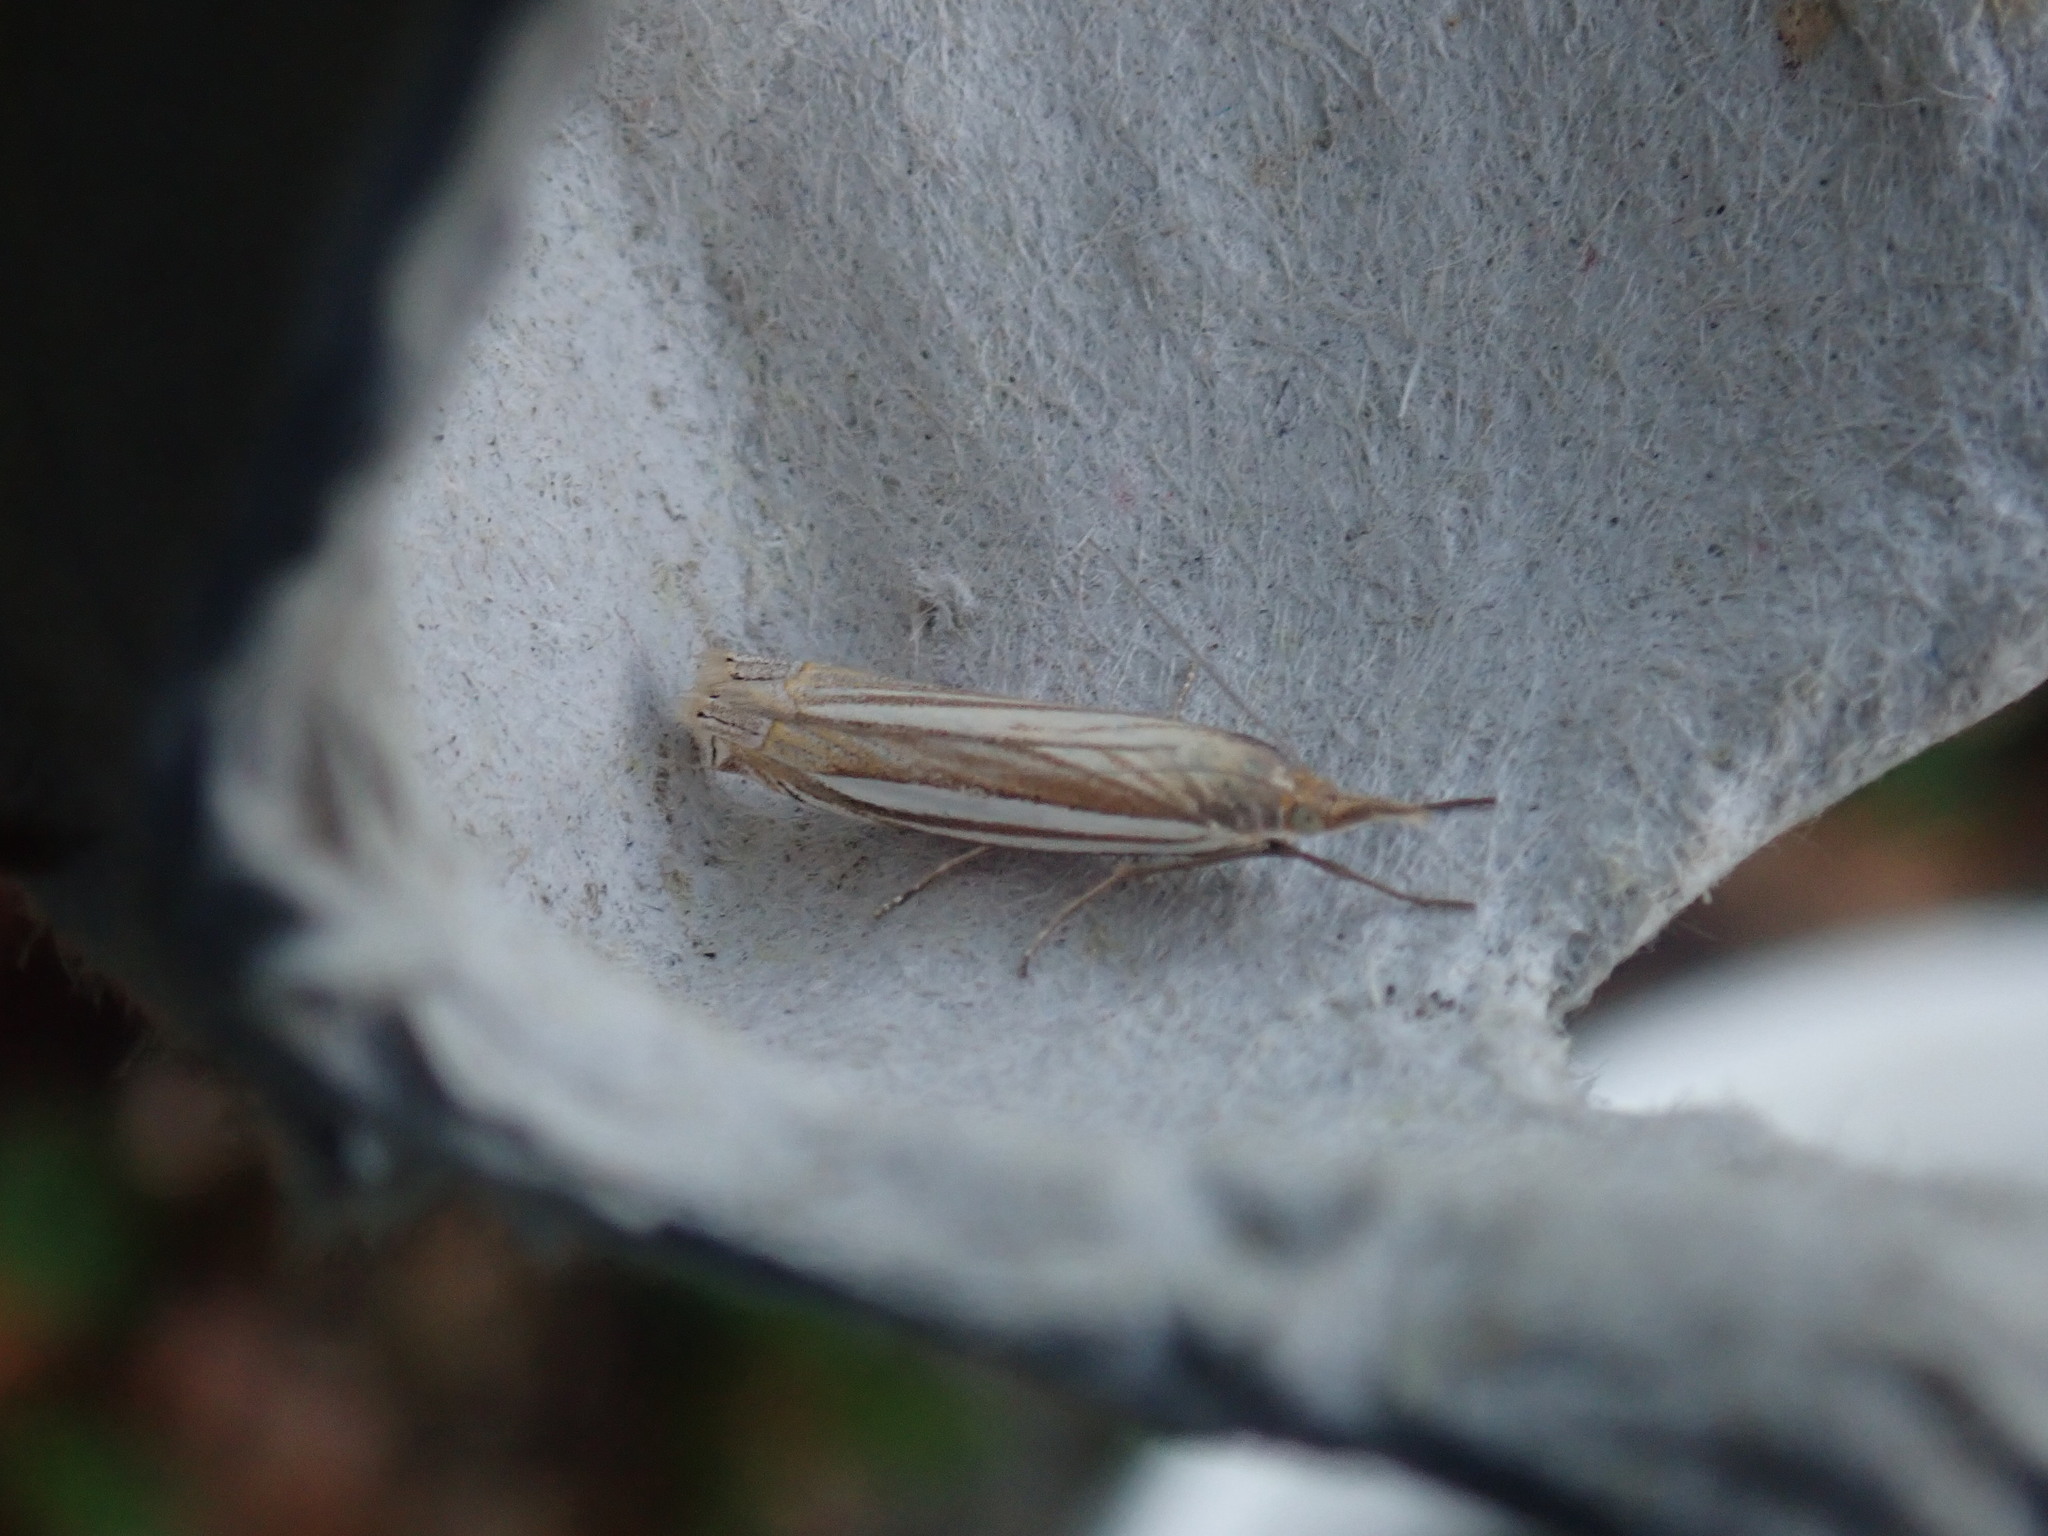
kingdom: Animalia
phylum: Arthropoda
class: Insecta
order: Lepidoptera
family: Crambidae
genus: Crambus
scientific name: Crambus laqueatellus
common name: Eastern grass-veneer
